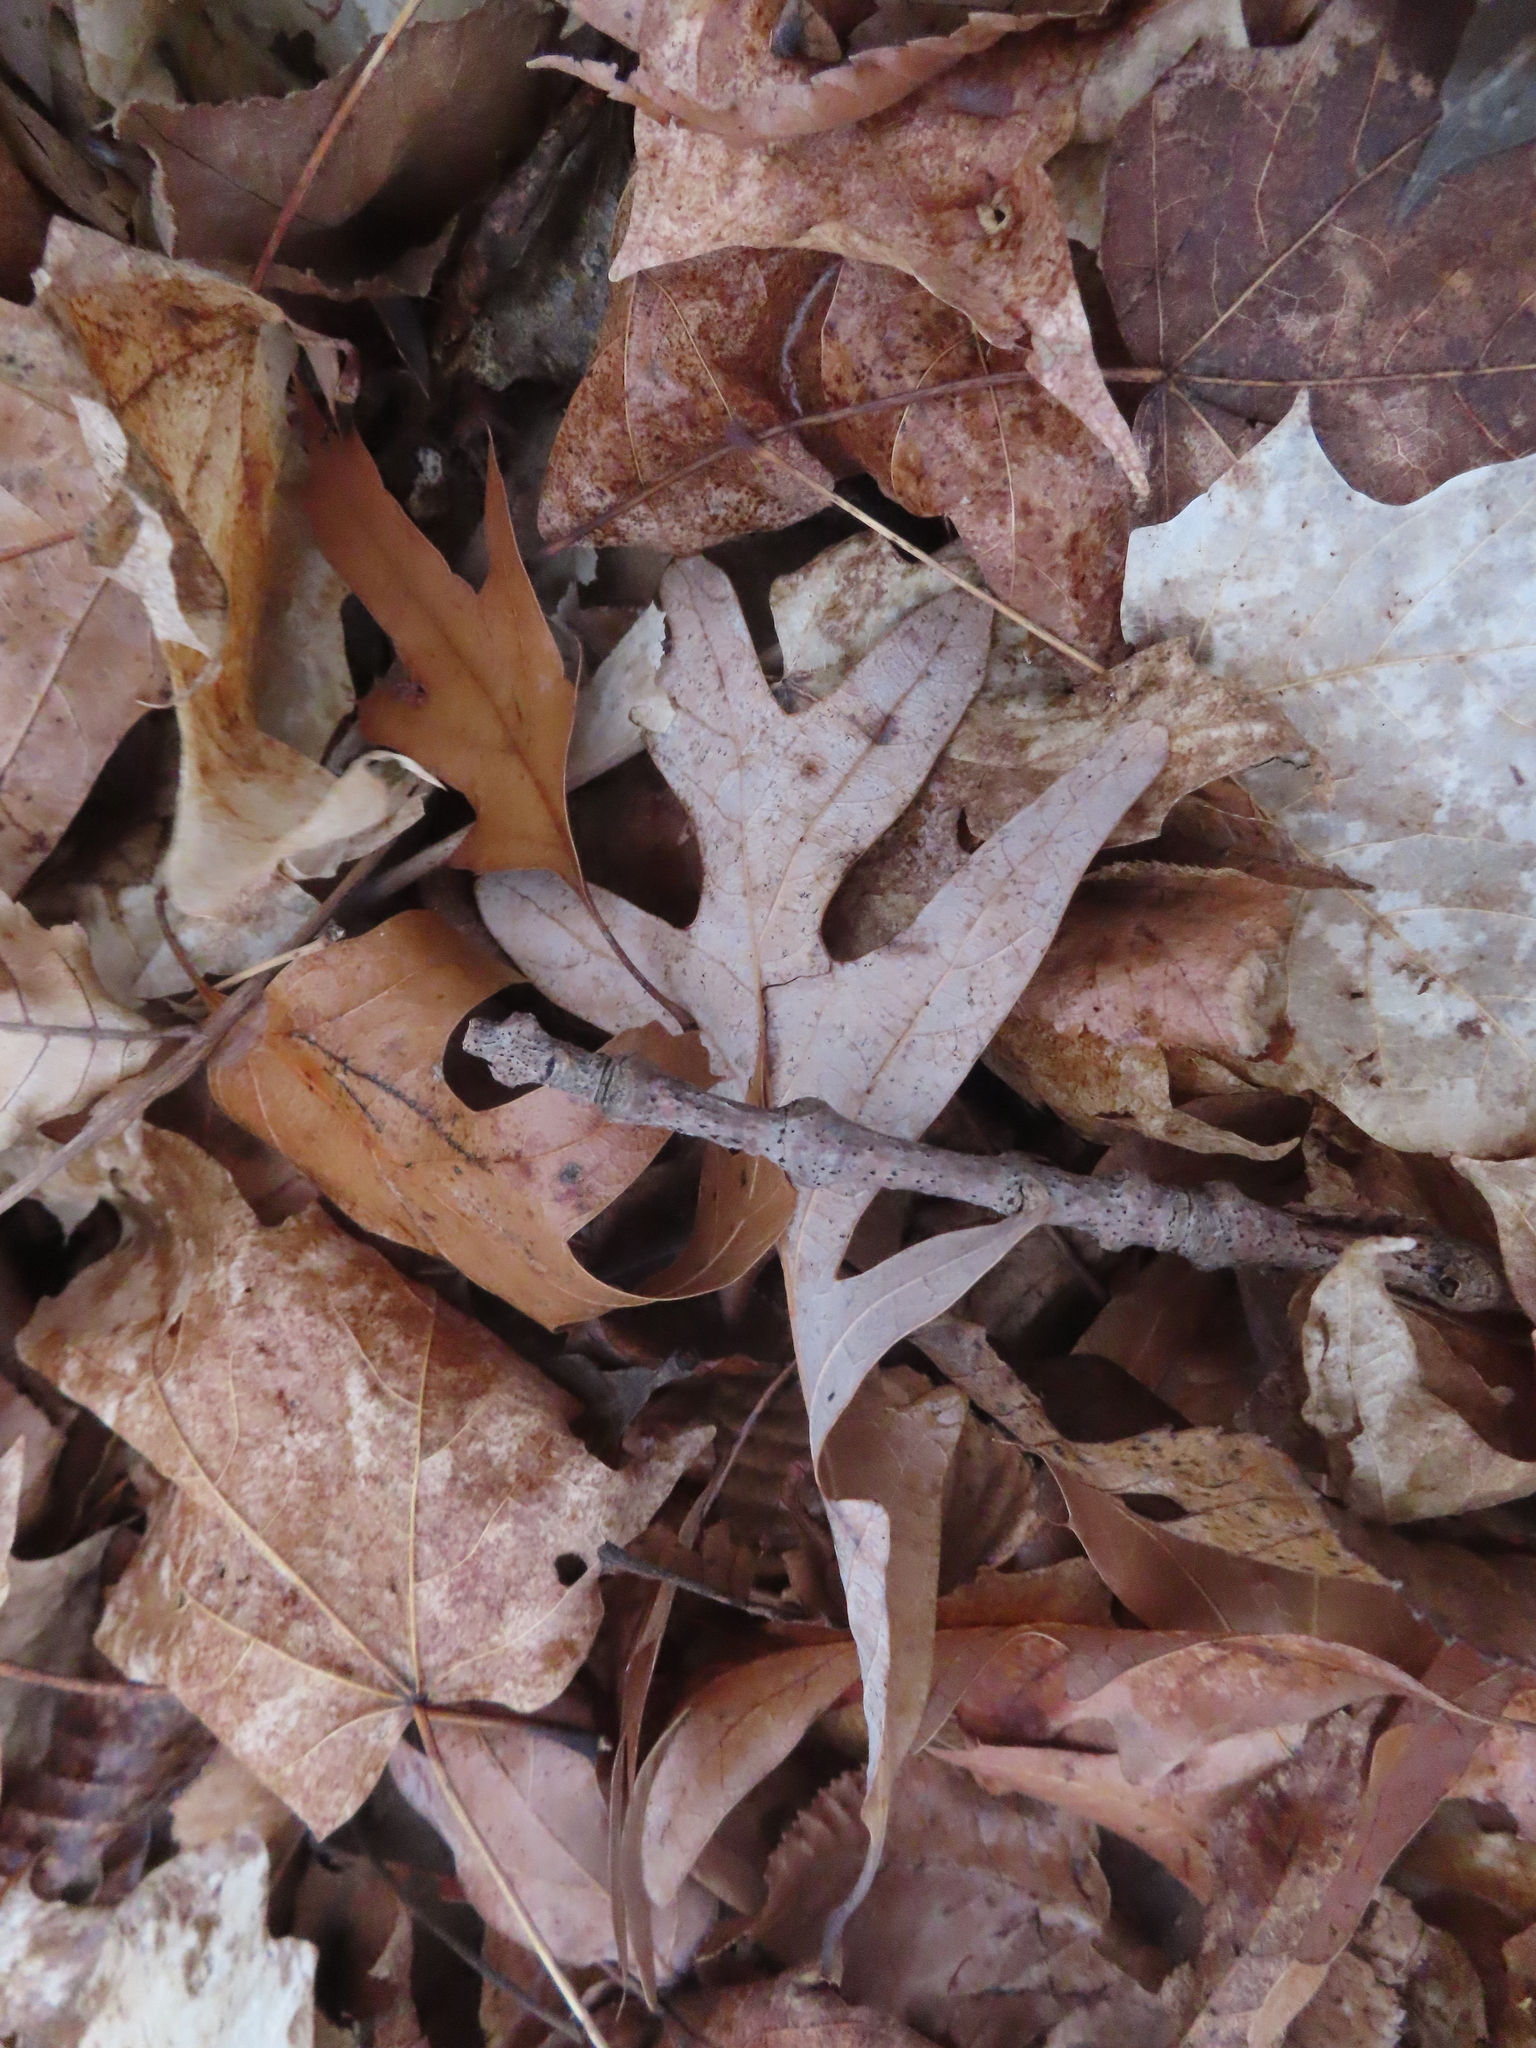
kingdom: Plantae
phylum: Tracheophyta
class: Magnoliopsida
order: Fagales
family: Fagaceae
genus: Quercus
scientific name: Quercus alba
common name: White oak
